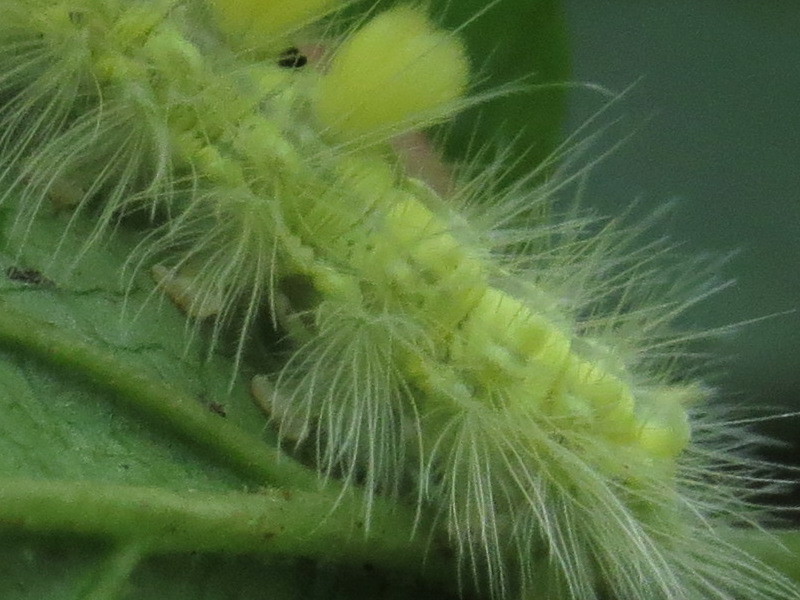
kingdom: Animalia
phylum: Arthropoda
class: Insecta
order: Lepidoptera
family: Erebidae
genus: Orgyia
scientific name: Orgyia definita
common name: Definite tussock moth
